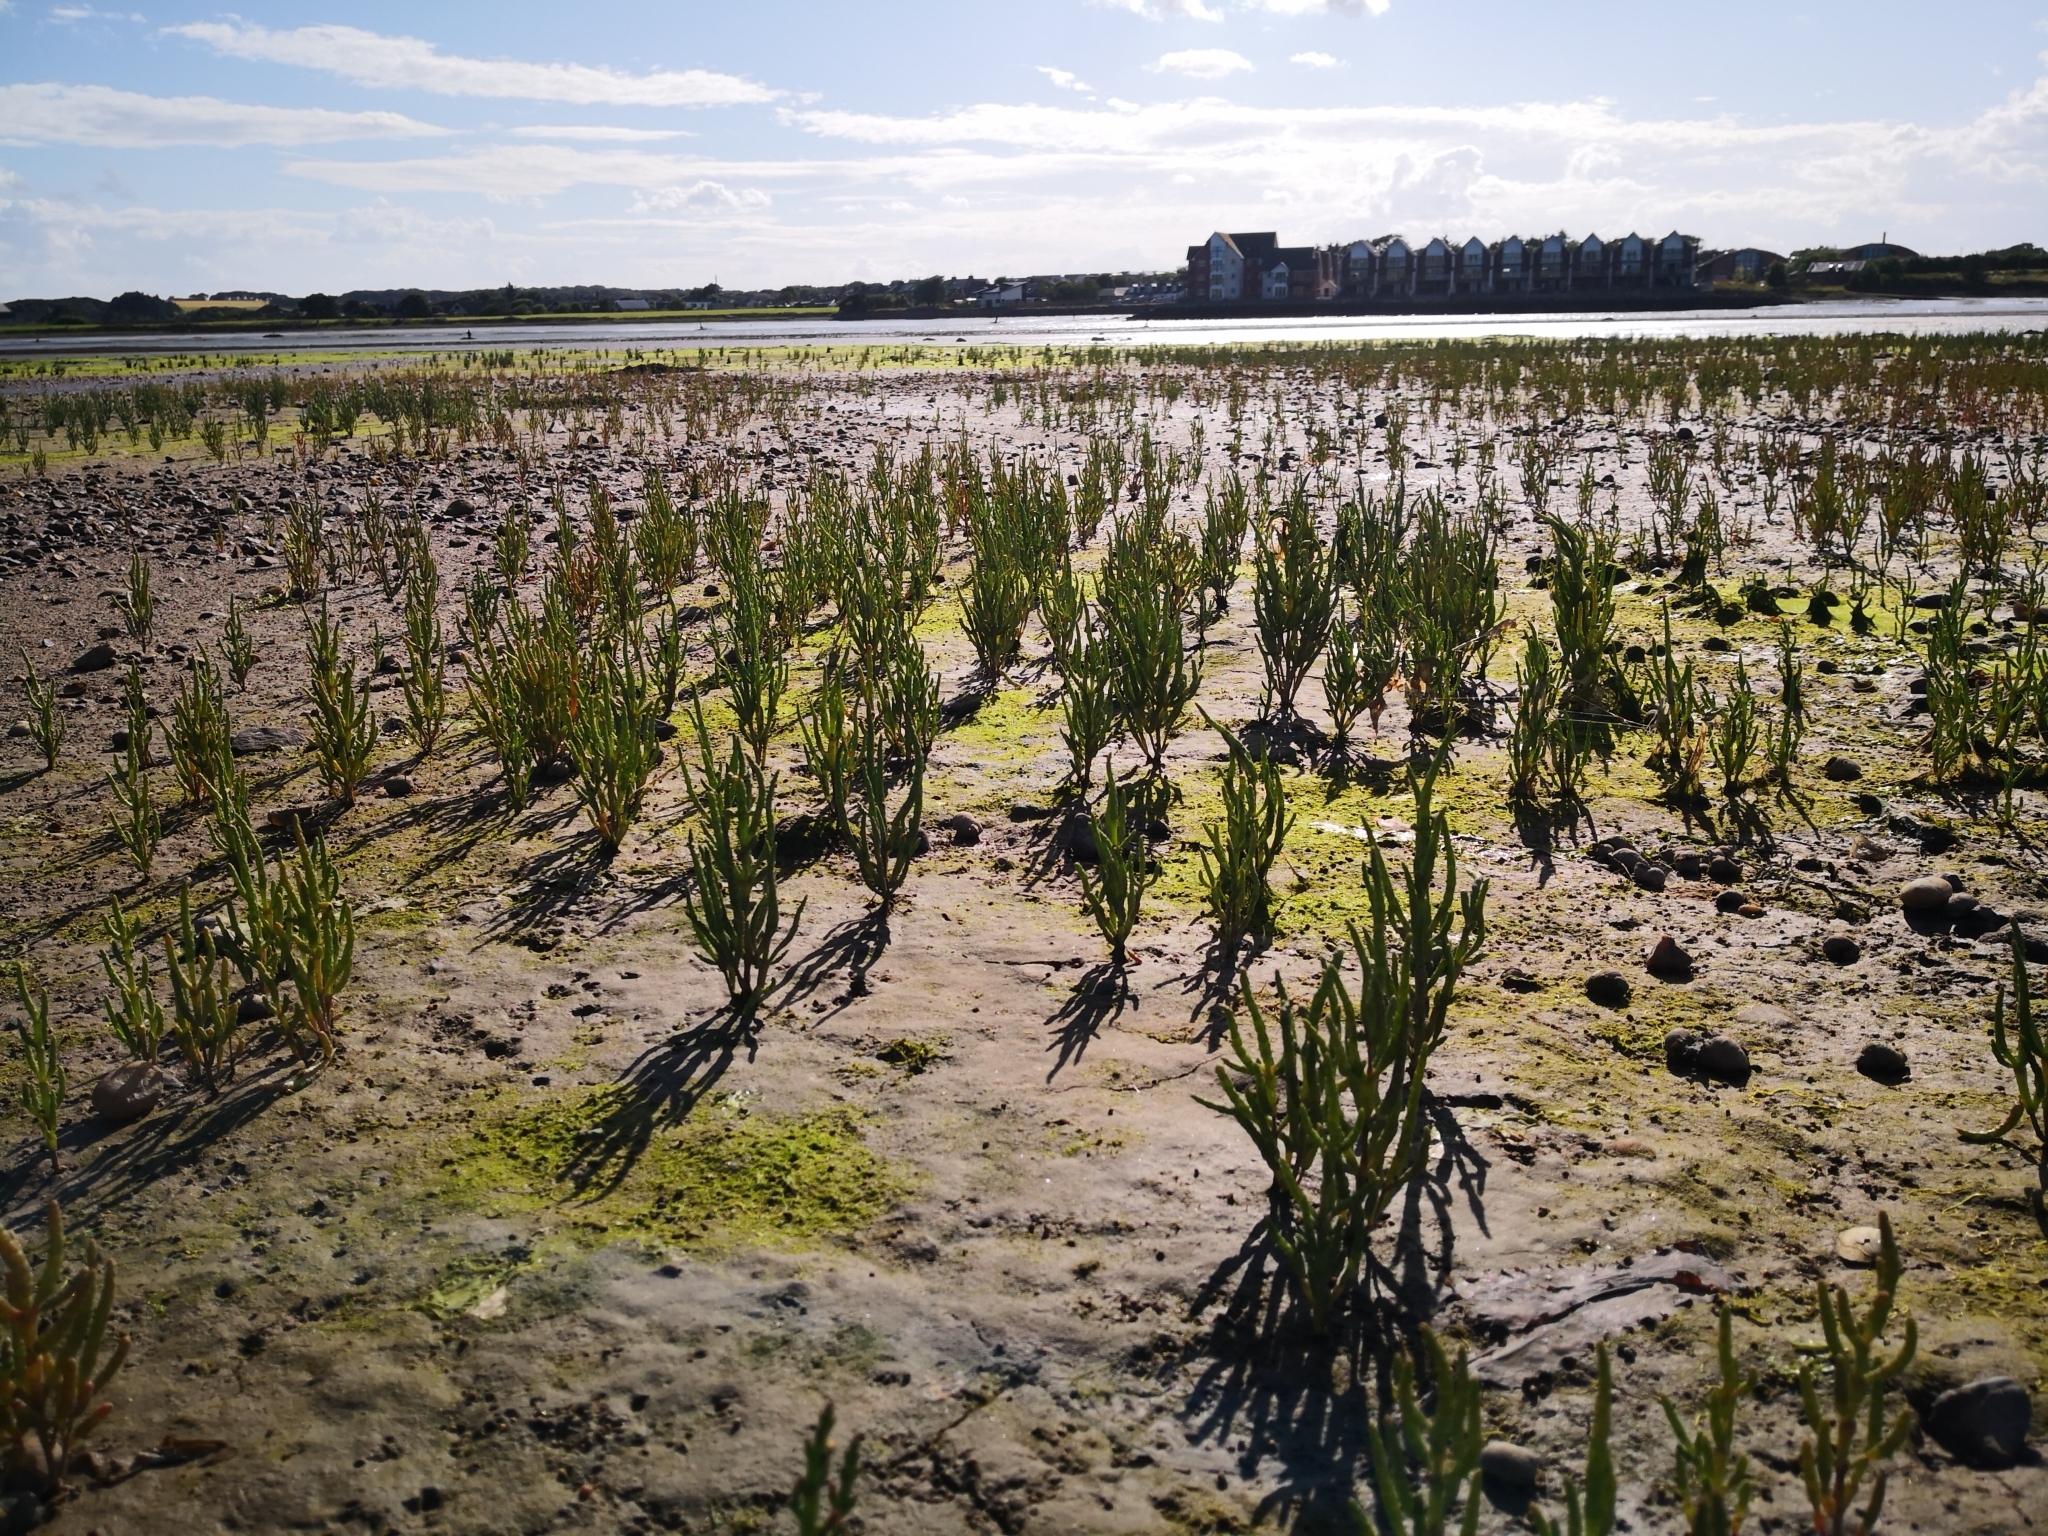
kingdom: Plantae
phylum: Tracheophyta
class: Magnoliopsida
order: Caryophyllales
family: Amaranthaceae
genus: Salicornia
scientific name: Salicornia europaea
